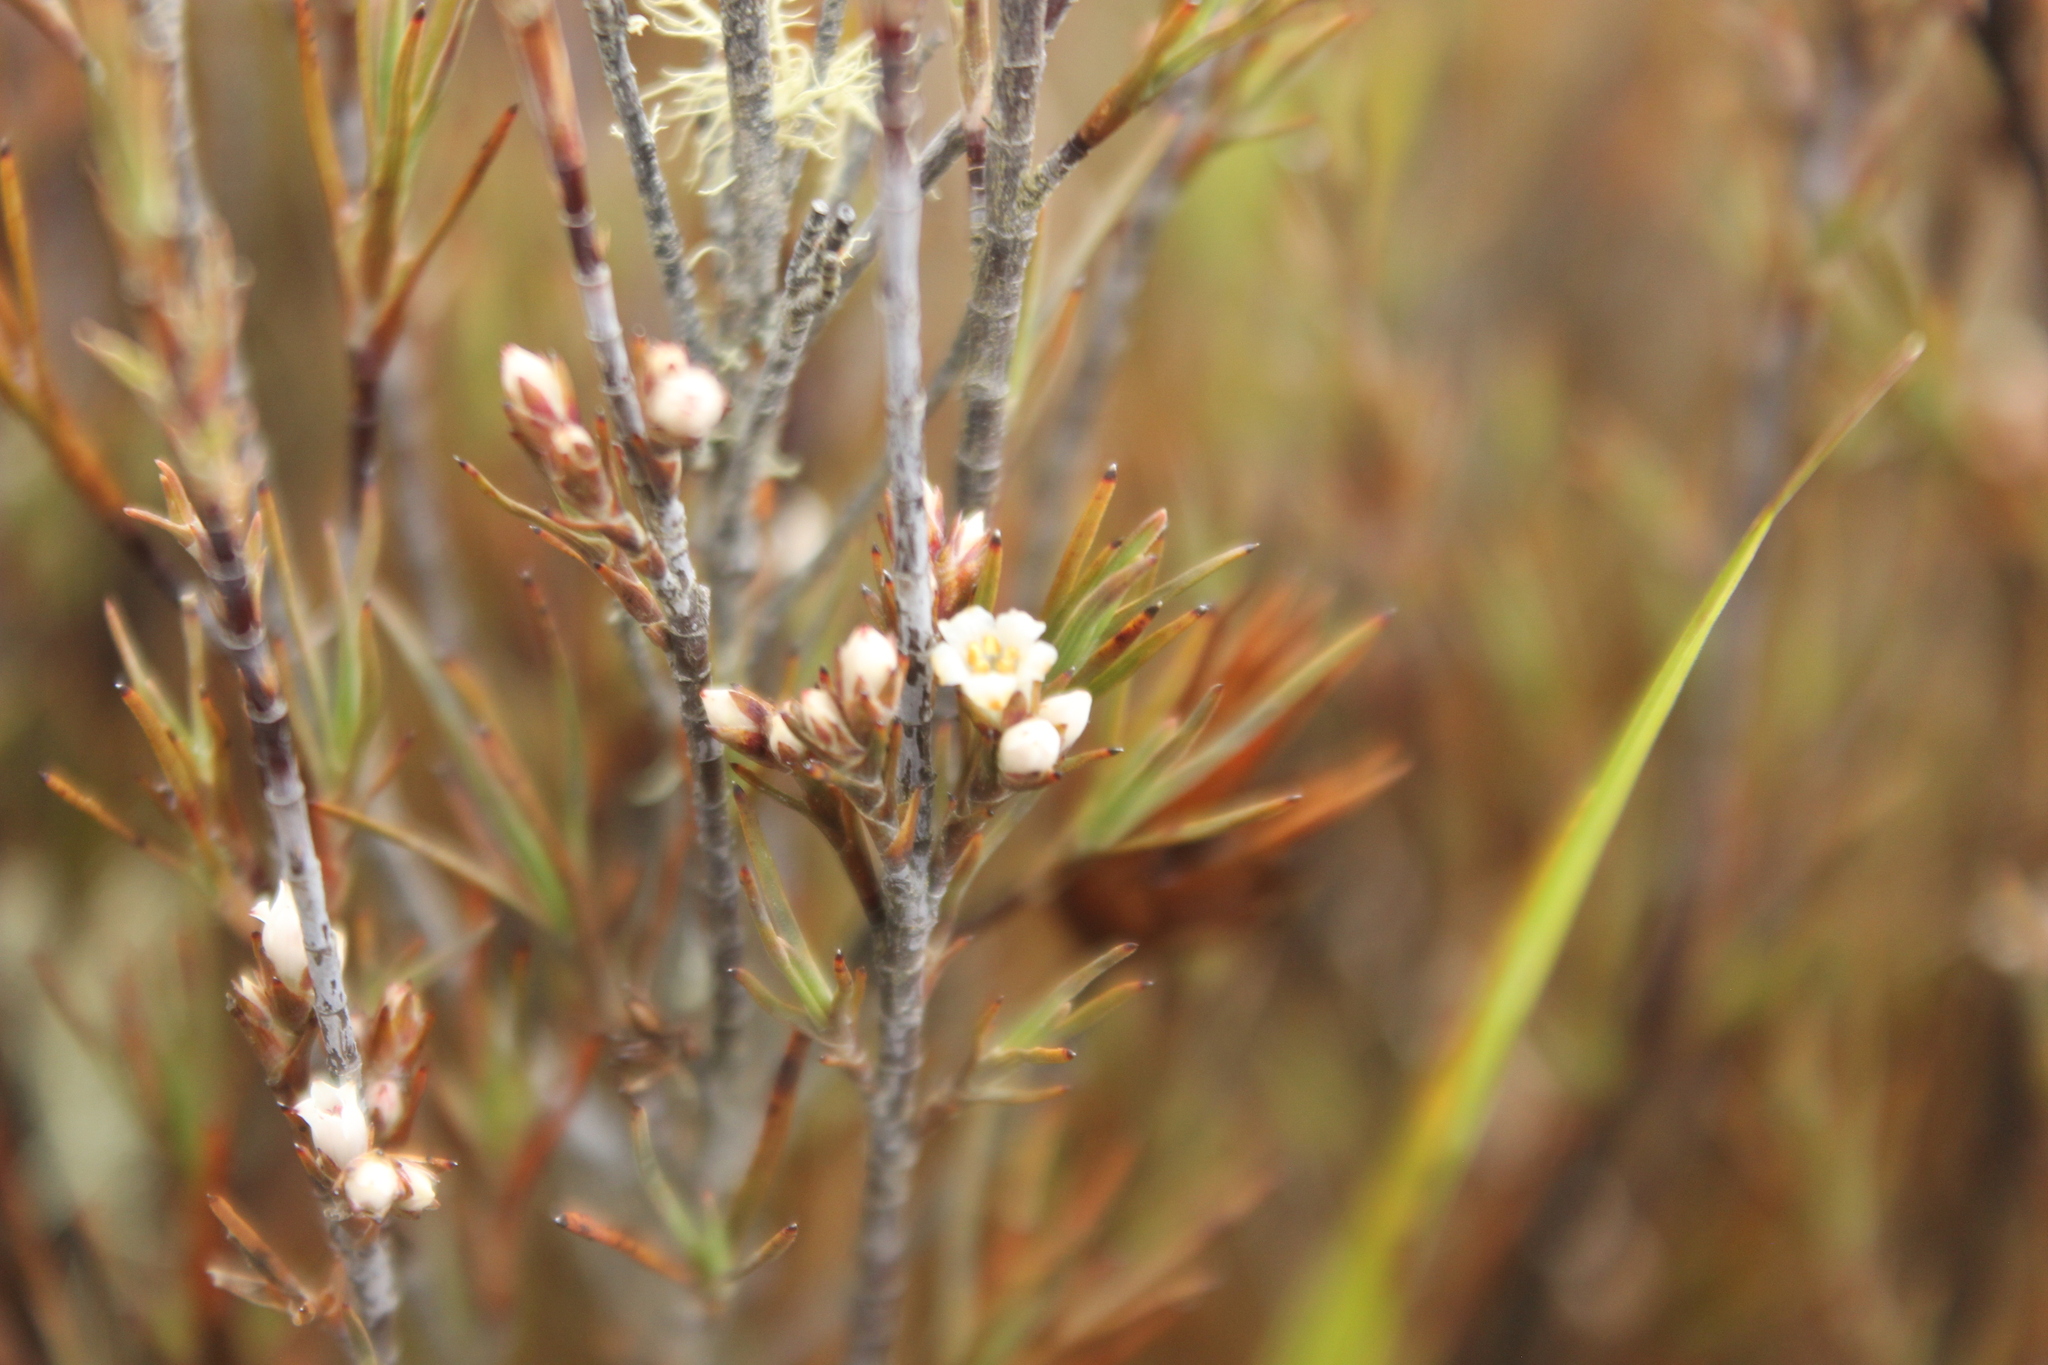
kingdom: Plantae
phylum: Tracheophyta
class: Magnoliopsida
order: Ericales
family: Ericaceae
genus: Dracophyllum
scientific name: Dracophyllum subulatum
